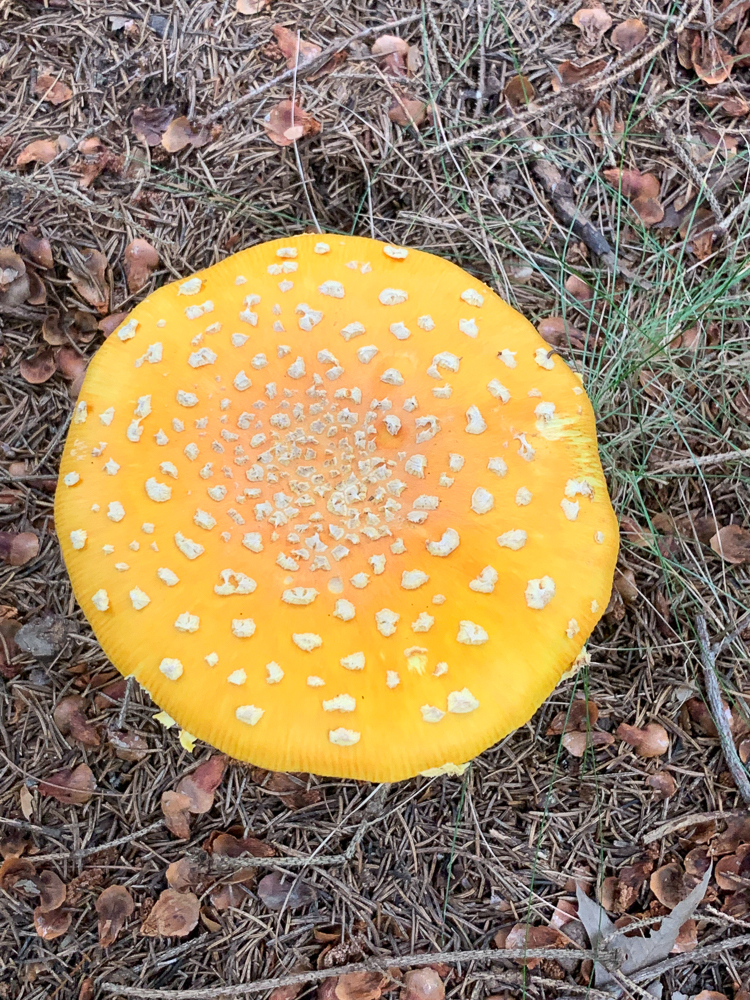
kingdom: Fungi
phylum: Basidiomycota
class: Agaricomycetes
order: Agaricales
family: Amanitaceae
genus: Amanita
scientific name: Amanita muscaria
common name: Fly agaric
